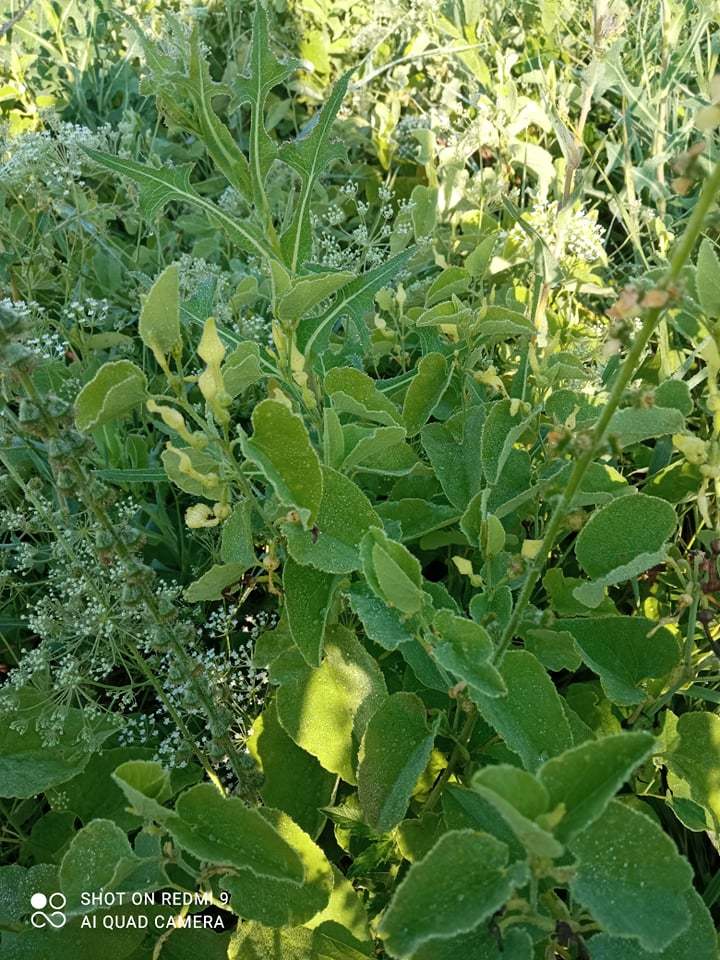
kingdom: Plantae
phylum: Tracheophyta
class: Magnoliopsida
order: Piperales
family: Aristolochiaceae
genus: Aristolochia
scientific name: Aristolochia clematitis
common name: Birthwort
